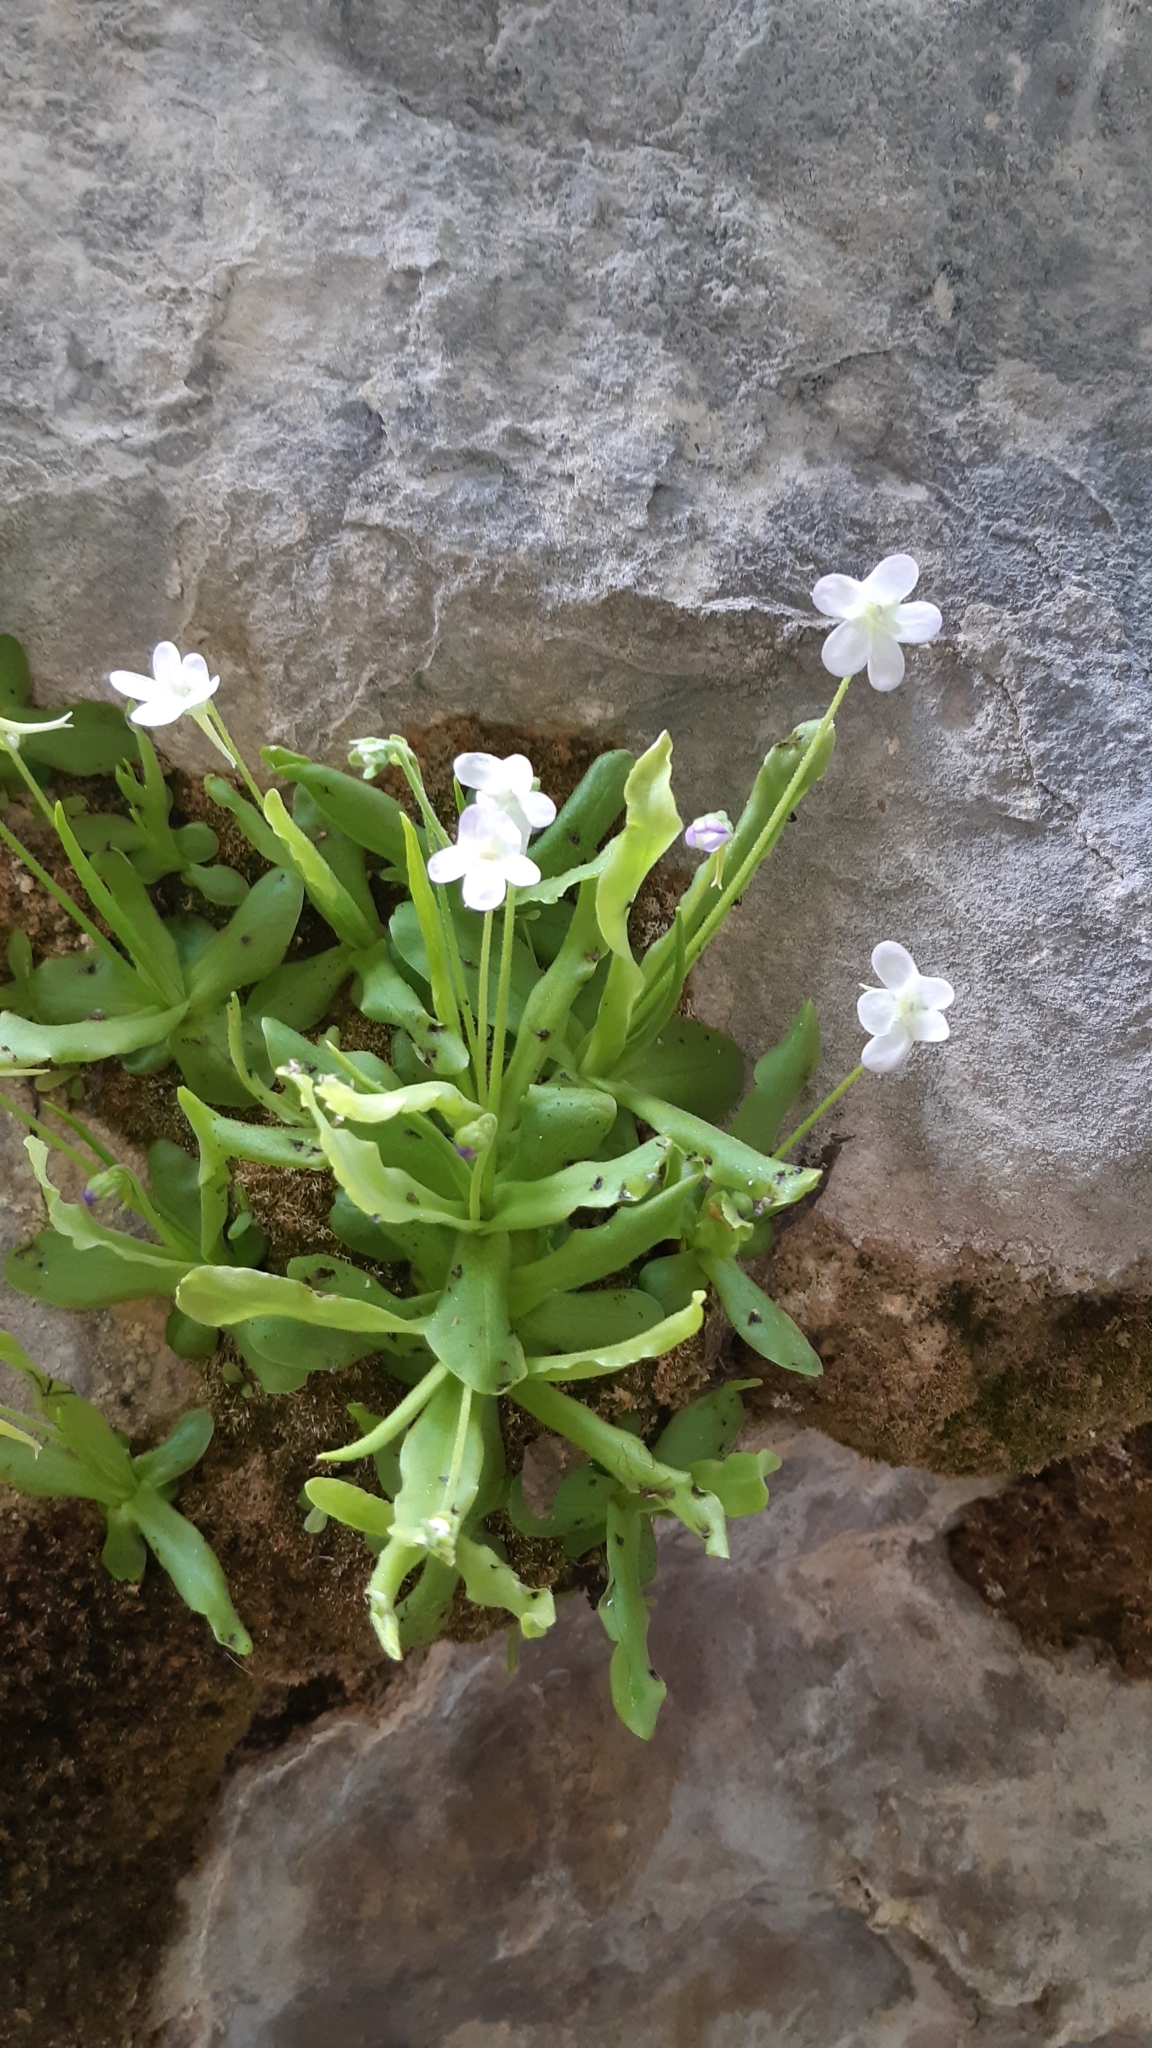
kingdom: Plantae
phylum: Tracheophyta
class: Magnoliopsida
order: Lamiales
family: Lentibulariaceae
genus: Pinguicula
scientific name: Pinguicula vallisneriifolia
